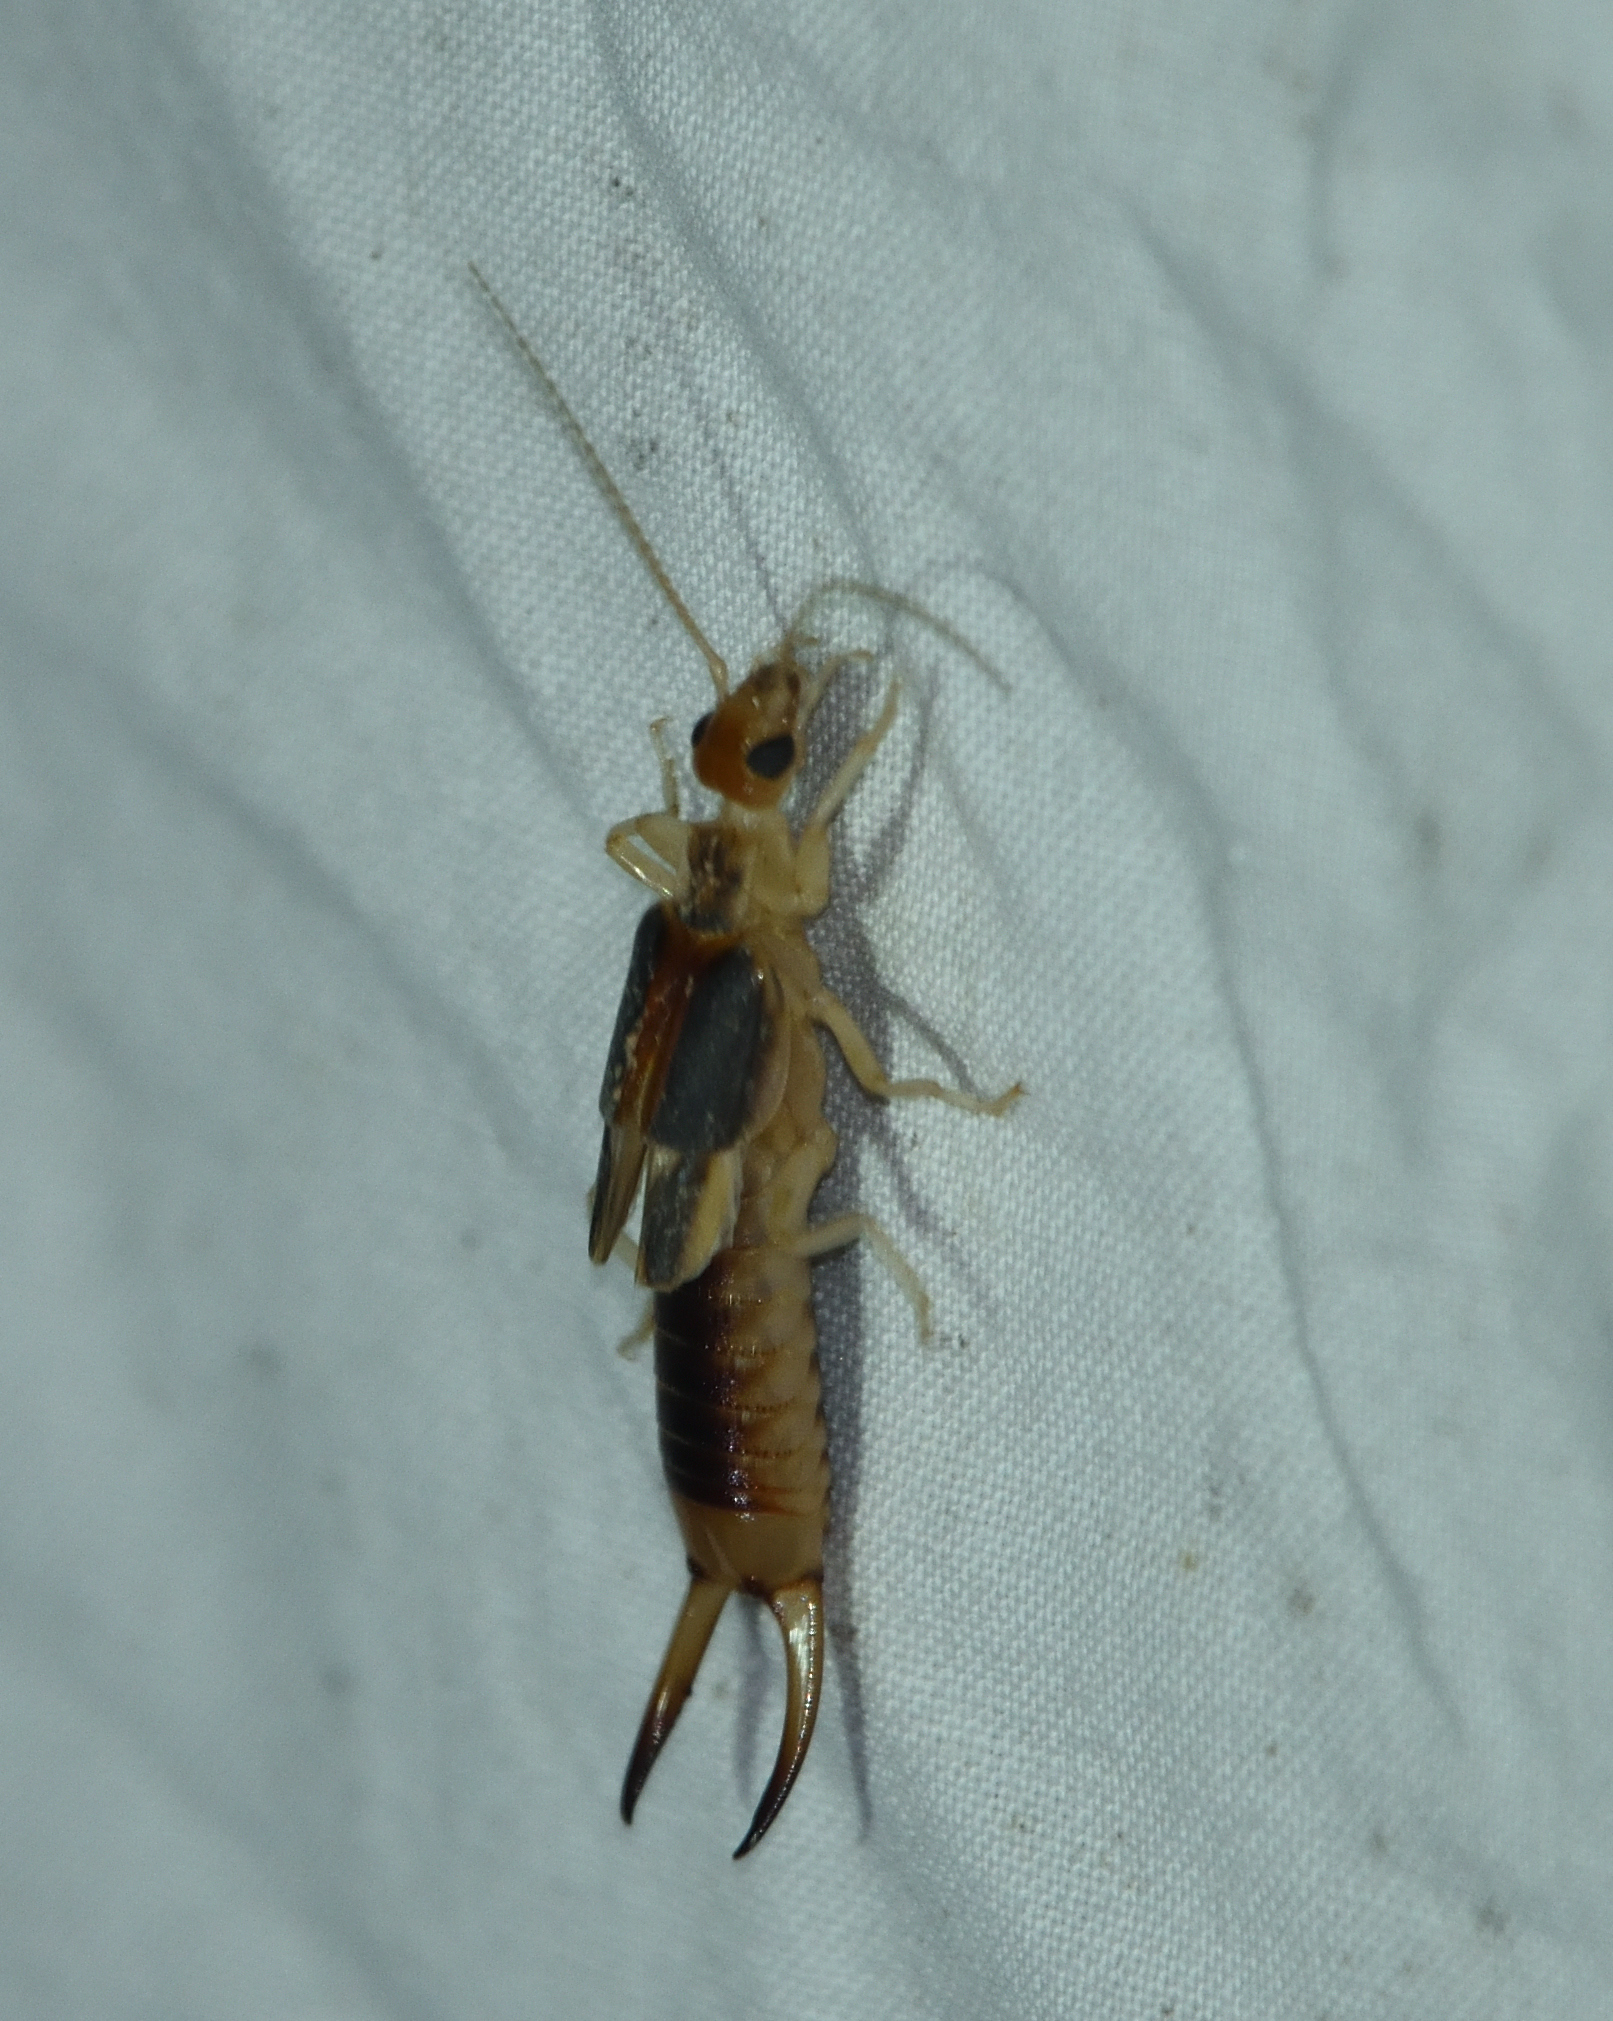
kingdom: Animalia
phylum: Arthropoda
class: Insecta
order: Dermaptera
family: Labiduridae
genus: Labidura
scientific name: Labidura riparia
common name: Striped earwig
